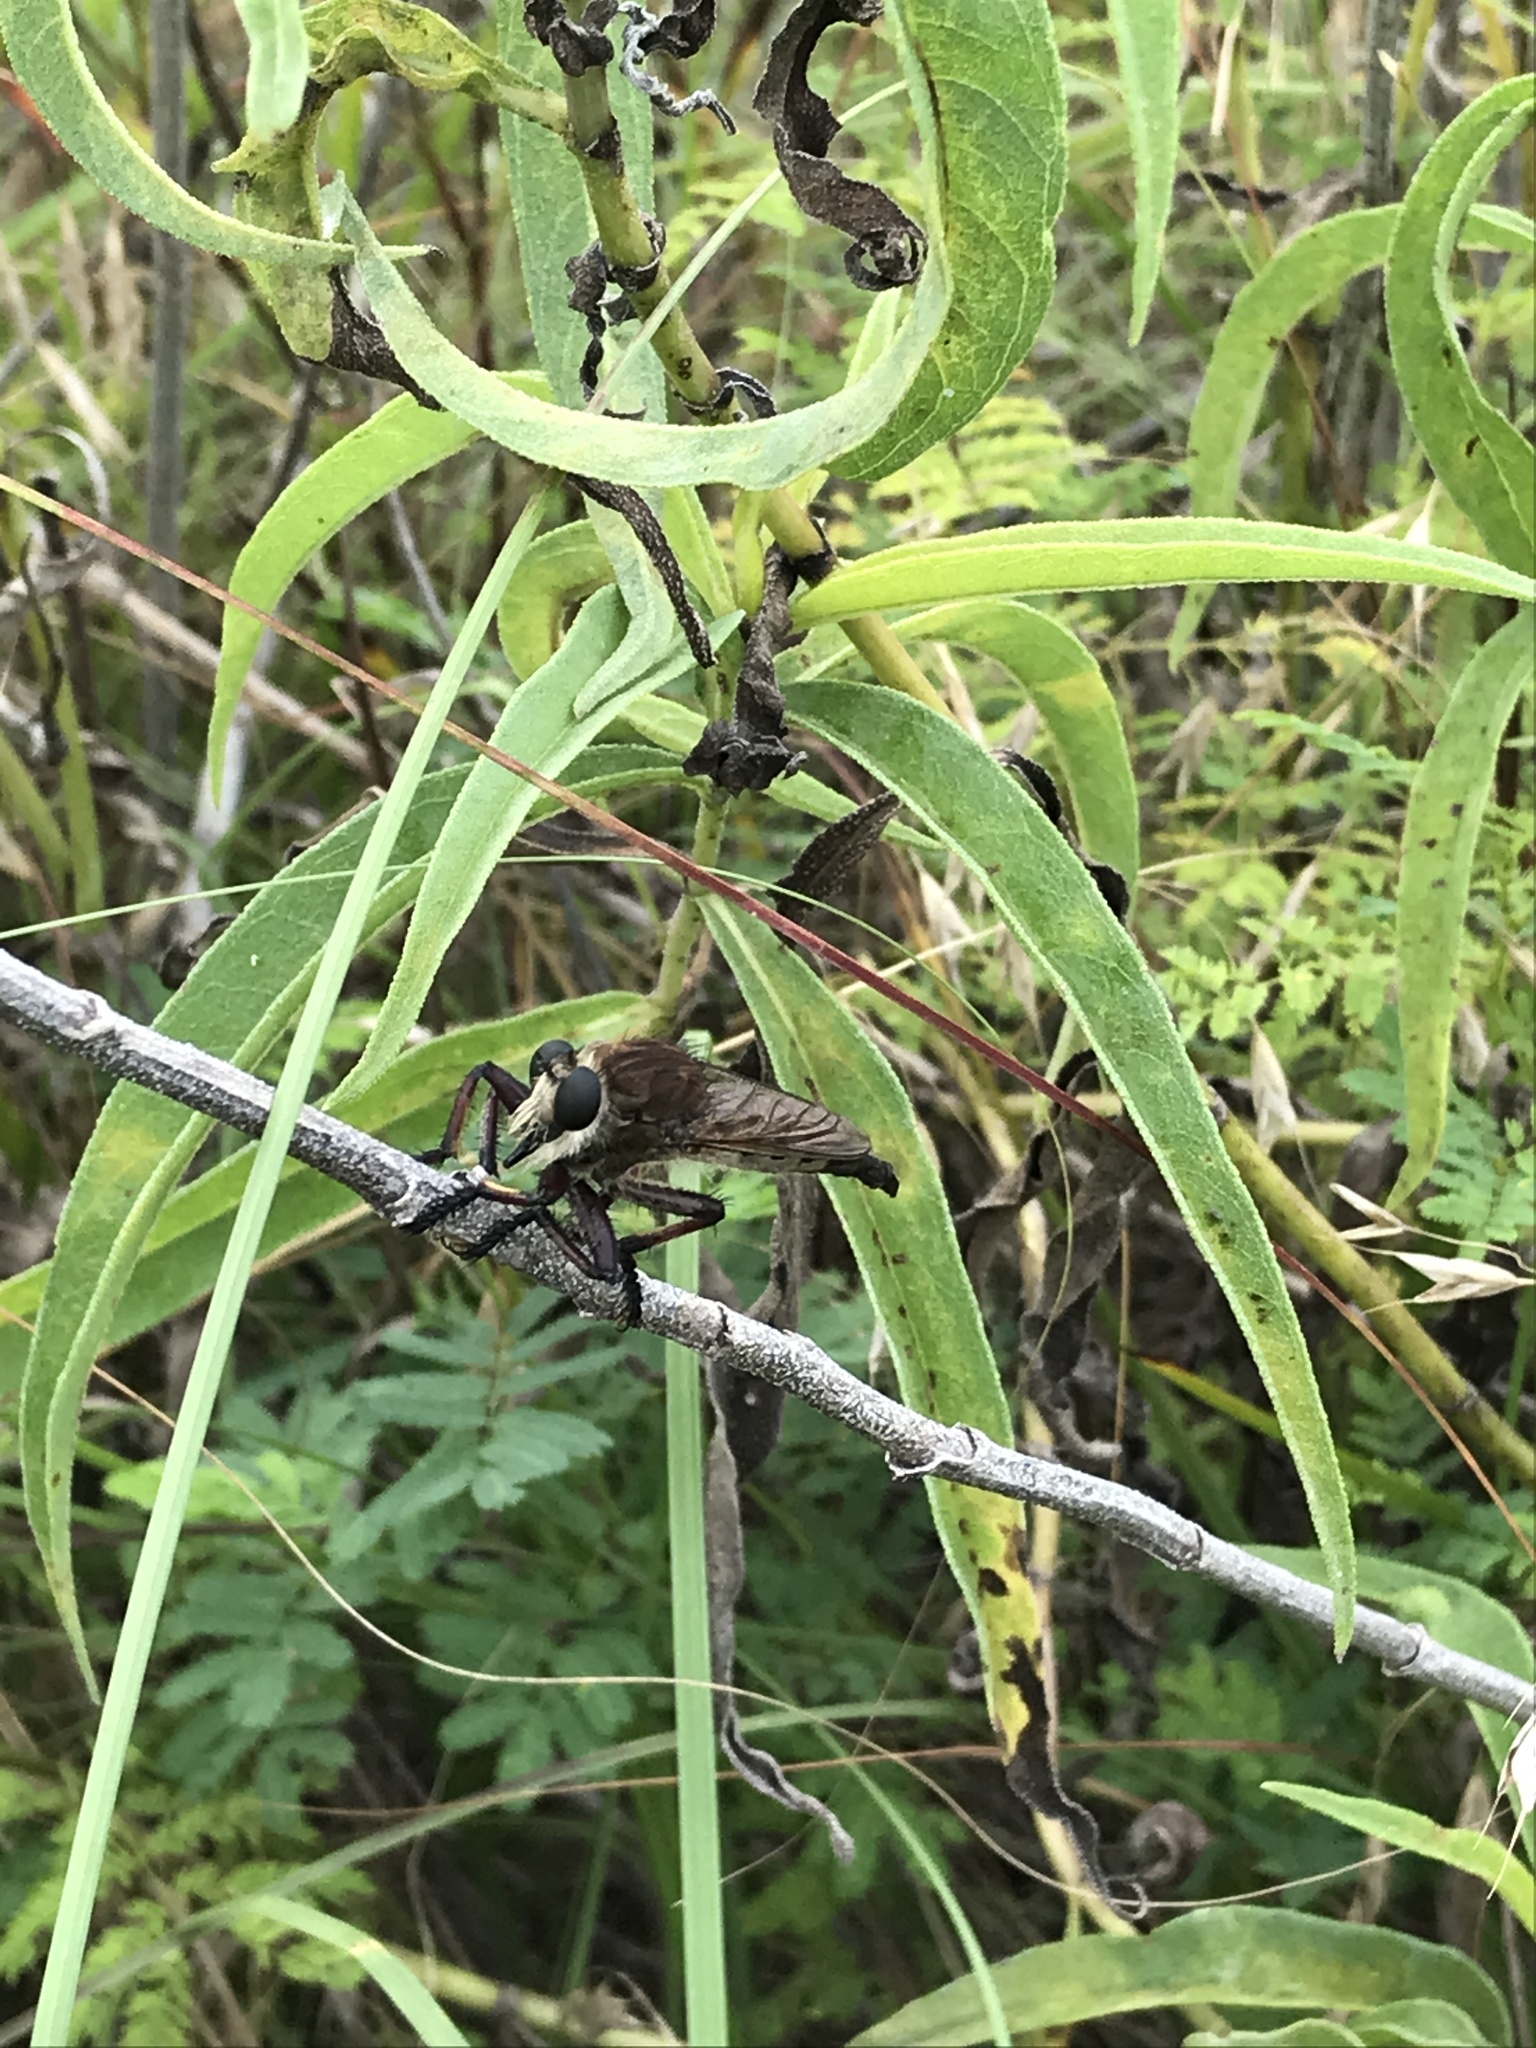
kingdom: Animalia
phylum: Arthropoda
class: Insecta
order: Diptera
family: Asilidae
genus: Promachus
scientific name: Promachus hinei
